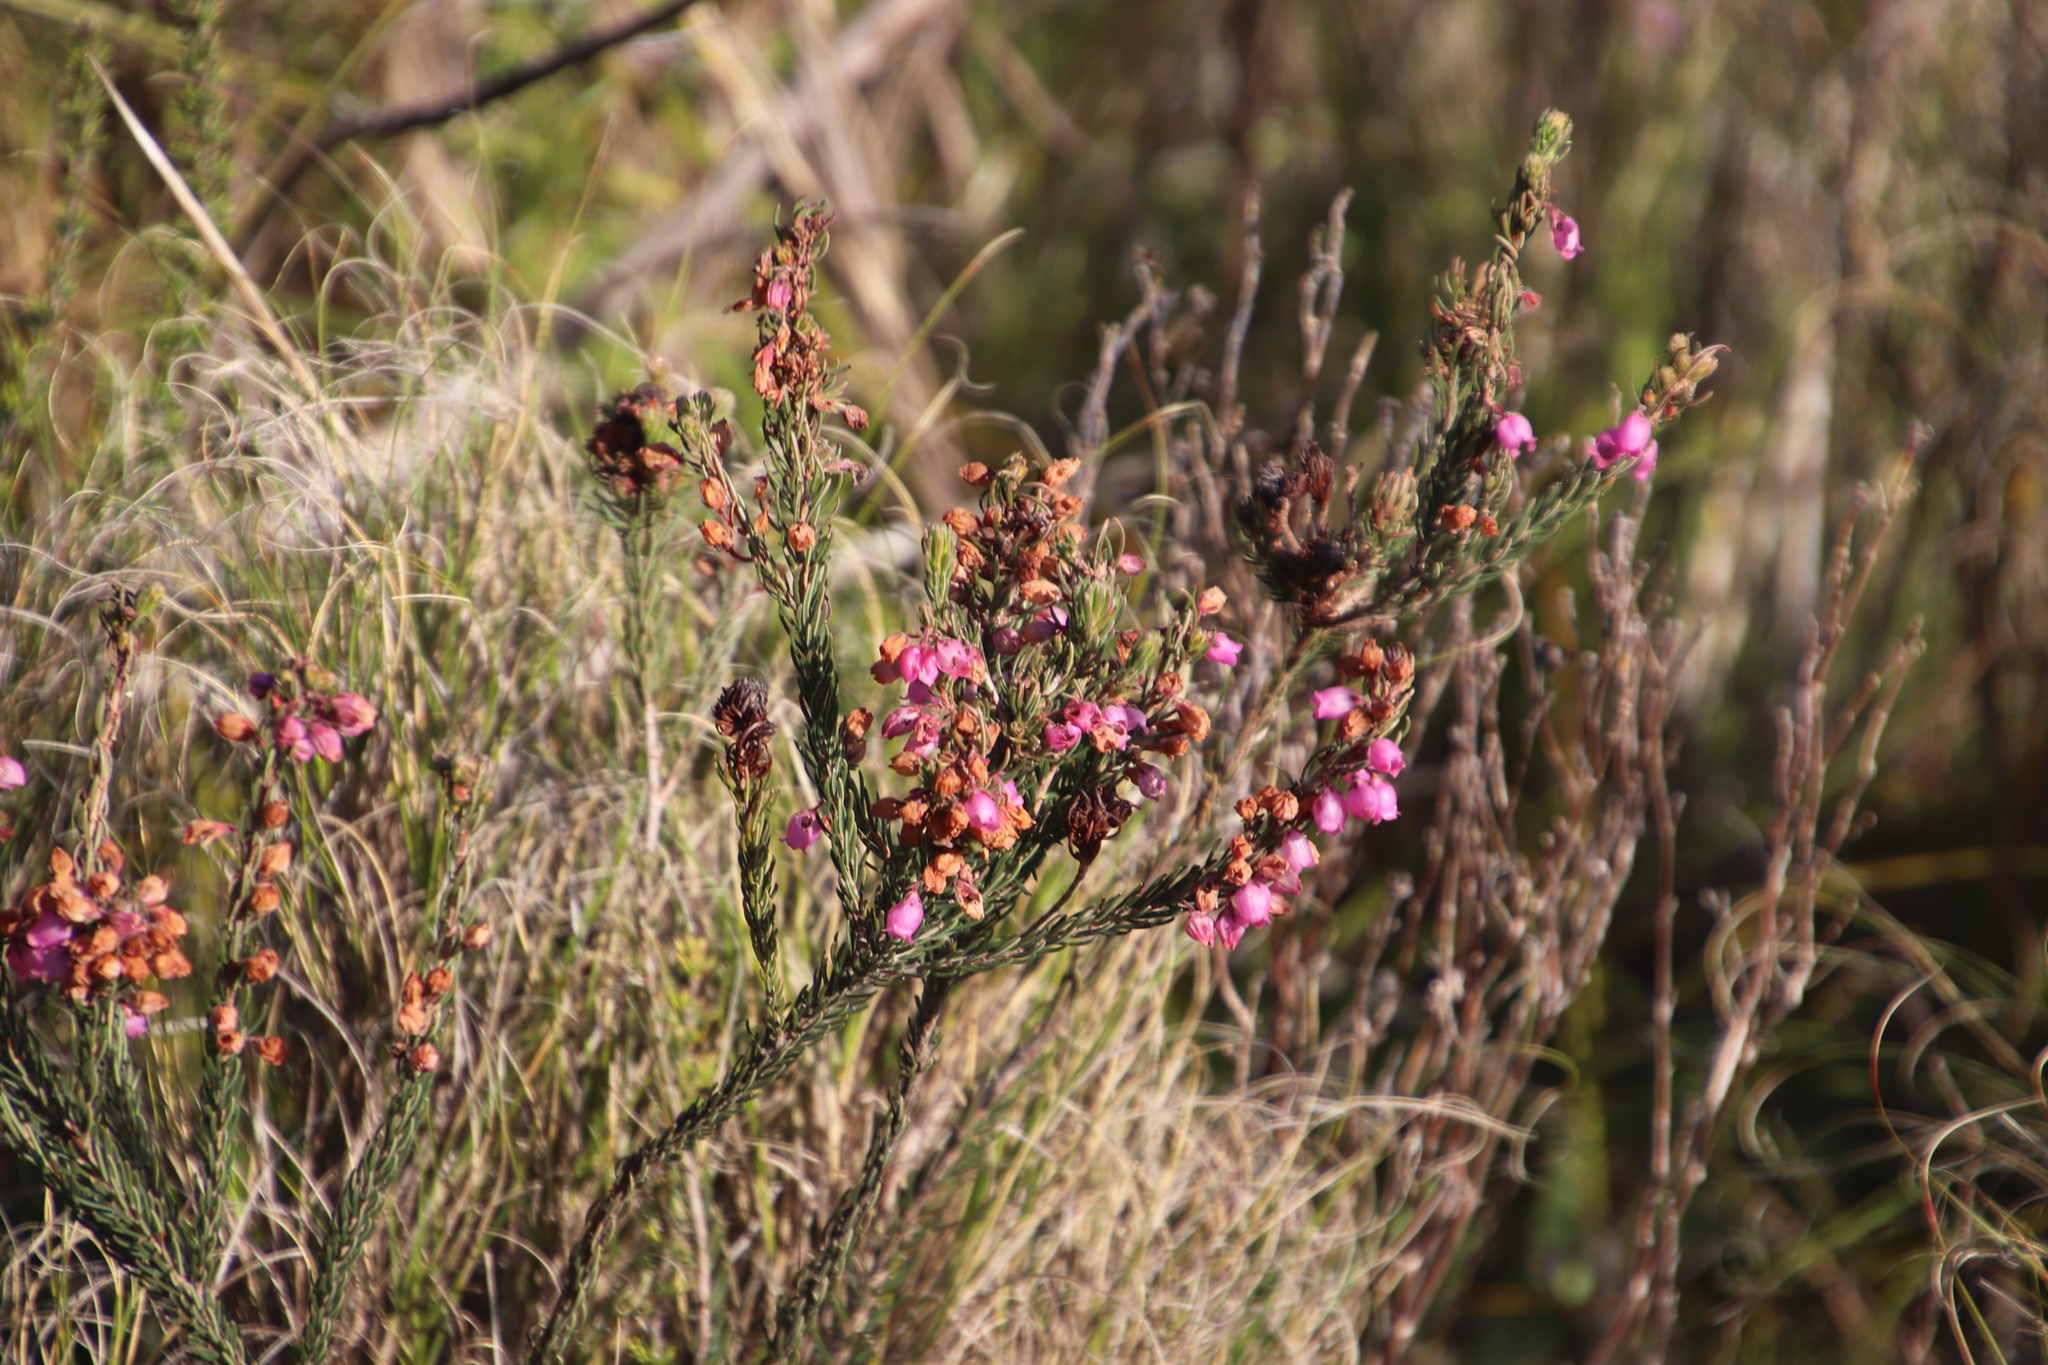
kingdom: Plantae
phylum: Tracheophyta
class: Magnoliopsida
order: Ericales
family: Ericaceae
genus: Erica
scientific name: Erica viscaria
